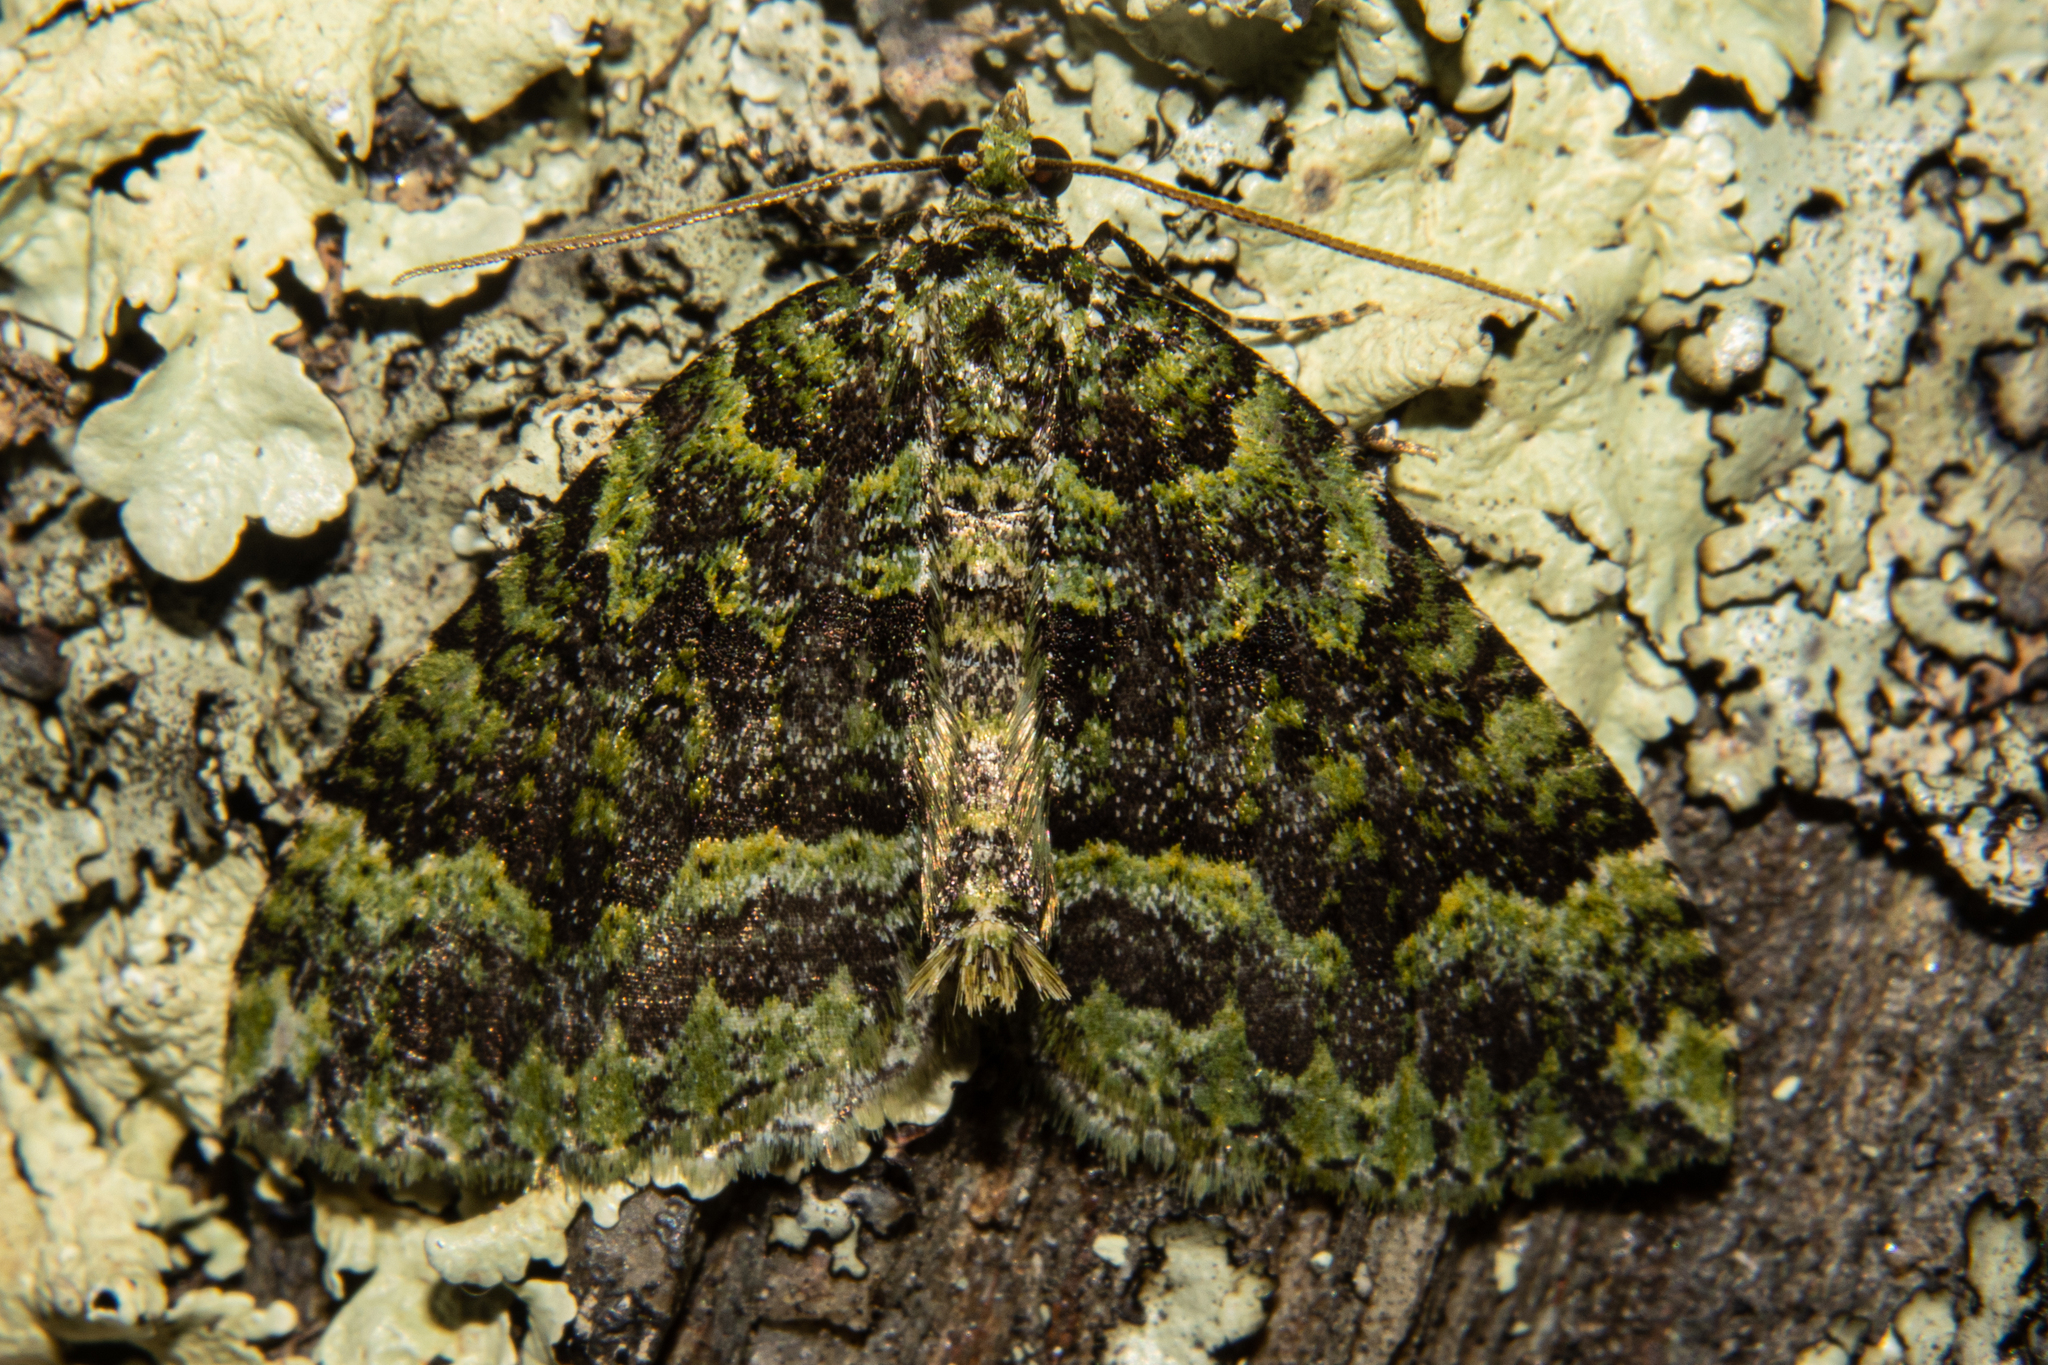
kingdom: Animalia
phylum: Arthropoda
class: Insecta
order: Lepidoptera
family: Geometridae
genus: Austrocidaria
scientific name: Austrocidaria callichlora
